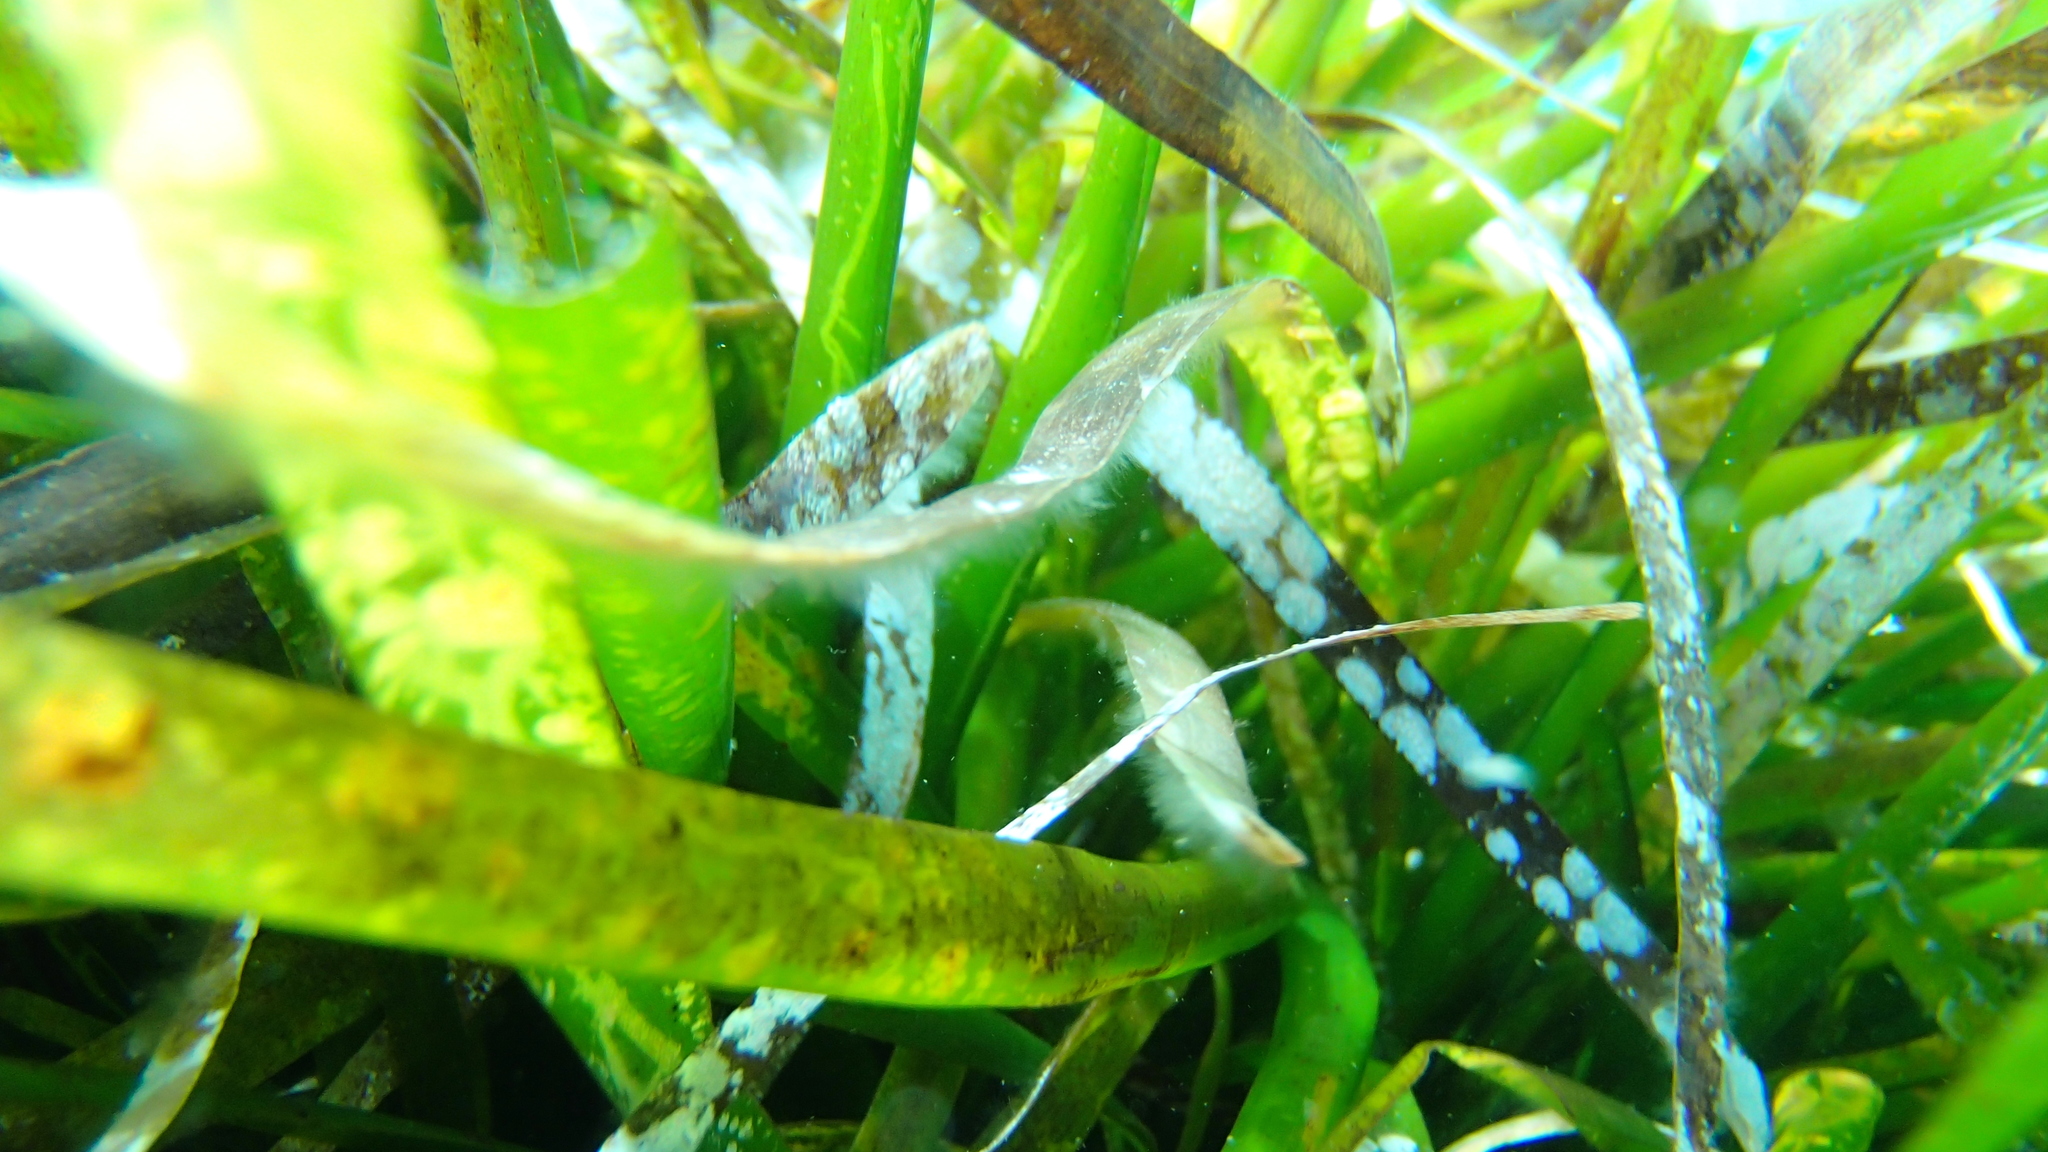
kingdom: Plantae
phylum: Tracheophyta
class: Liliopsida
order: Alismatales
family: Posidoniaceae
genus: Posidonia
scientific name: Posidonia oceanica
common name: Mediterranean tapeweed
